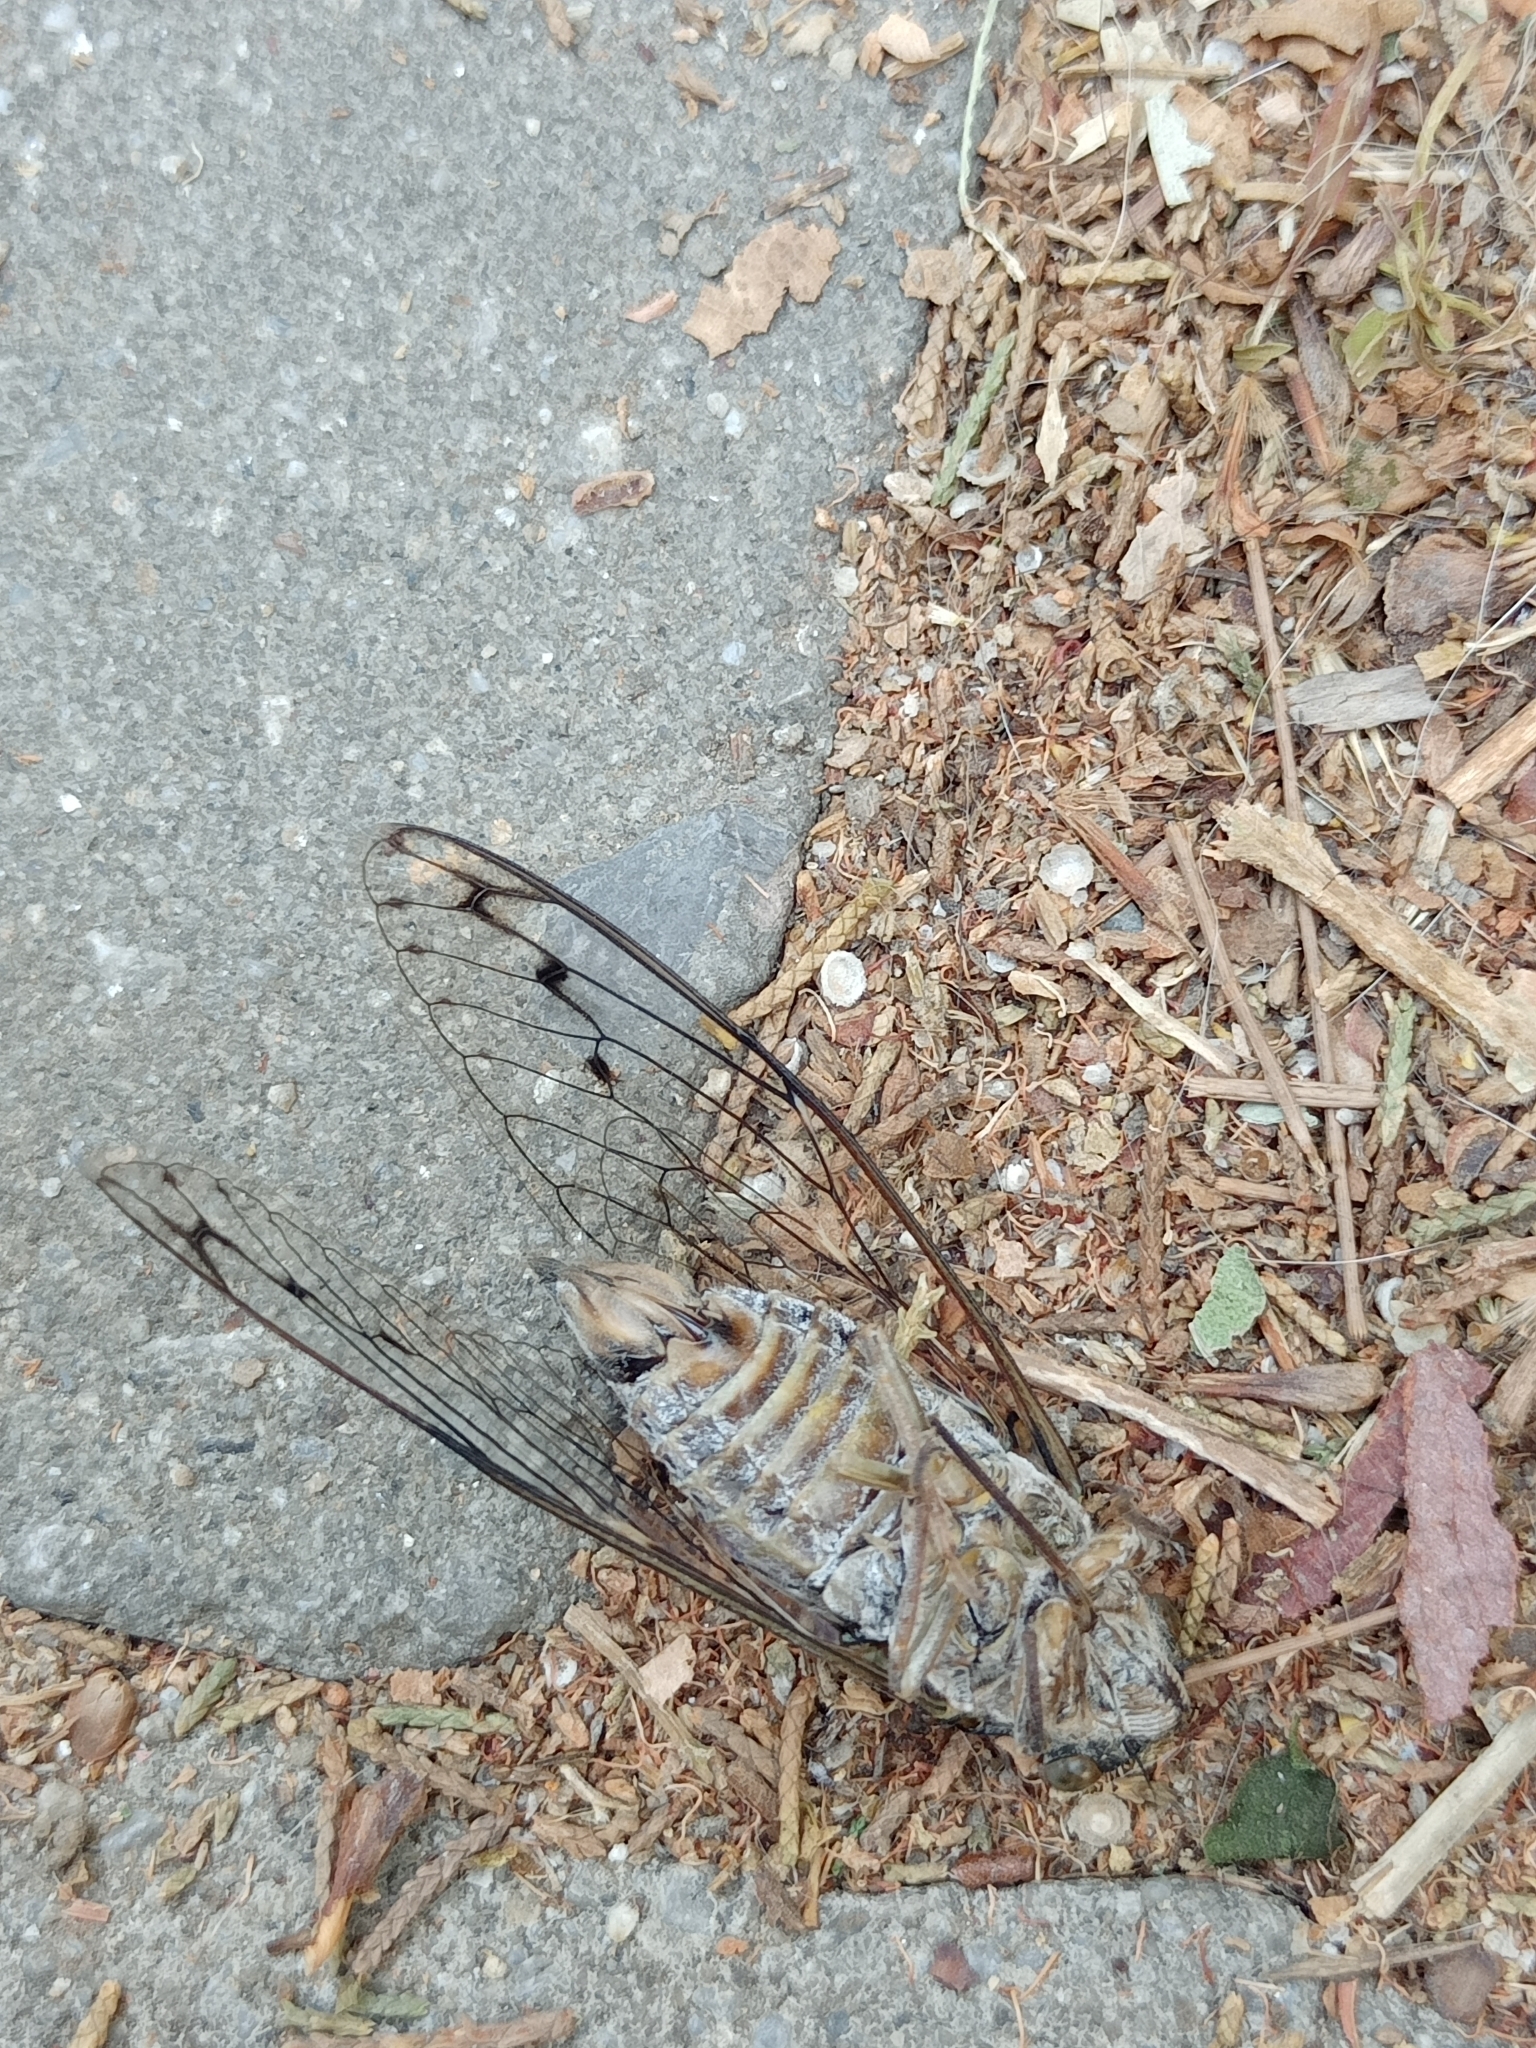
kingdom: Animalia
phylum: Arthropoda
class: Insecta
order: Hemiptera
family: Cicadidae
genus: Cicada
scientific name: Cicada mordoganensis
